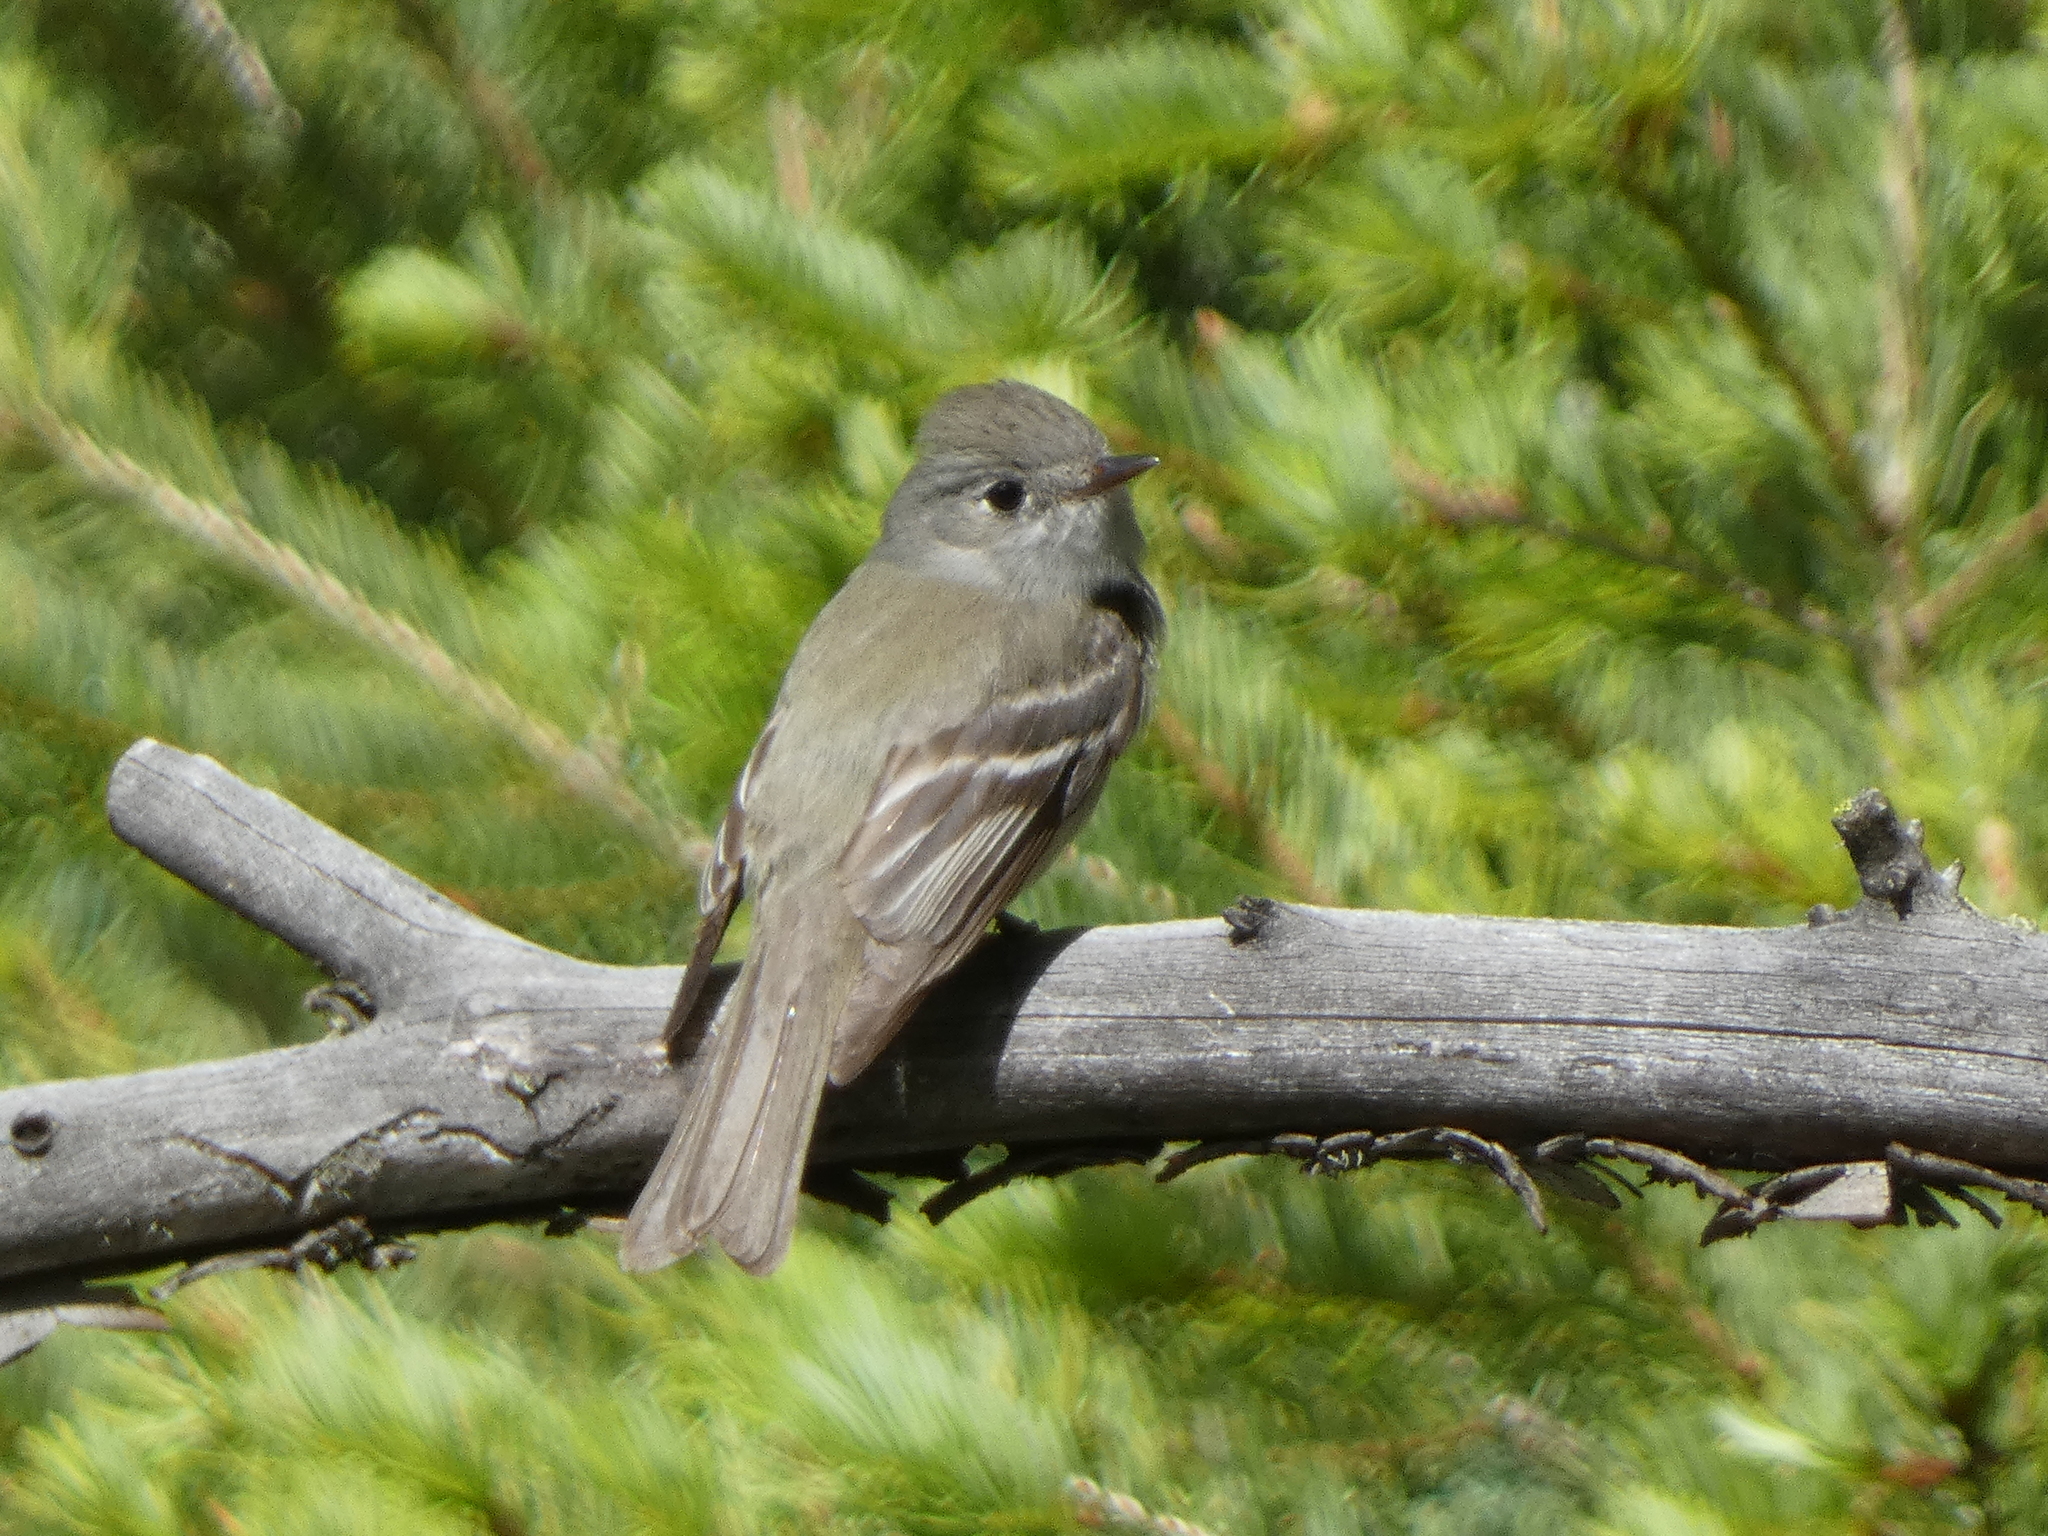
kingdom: Animalia
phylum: Chordata
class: Aves
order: Passeriformes
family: Tyrannidae
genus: Empidonax
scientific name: Empidonax hammondii
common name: Hammond's flycatcher
